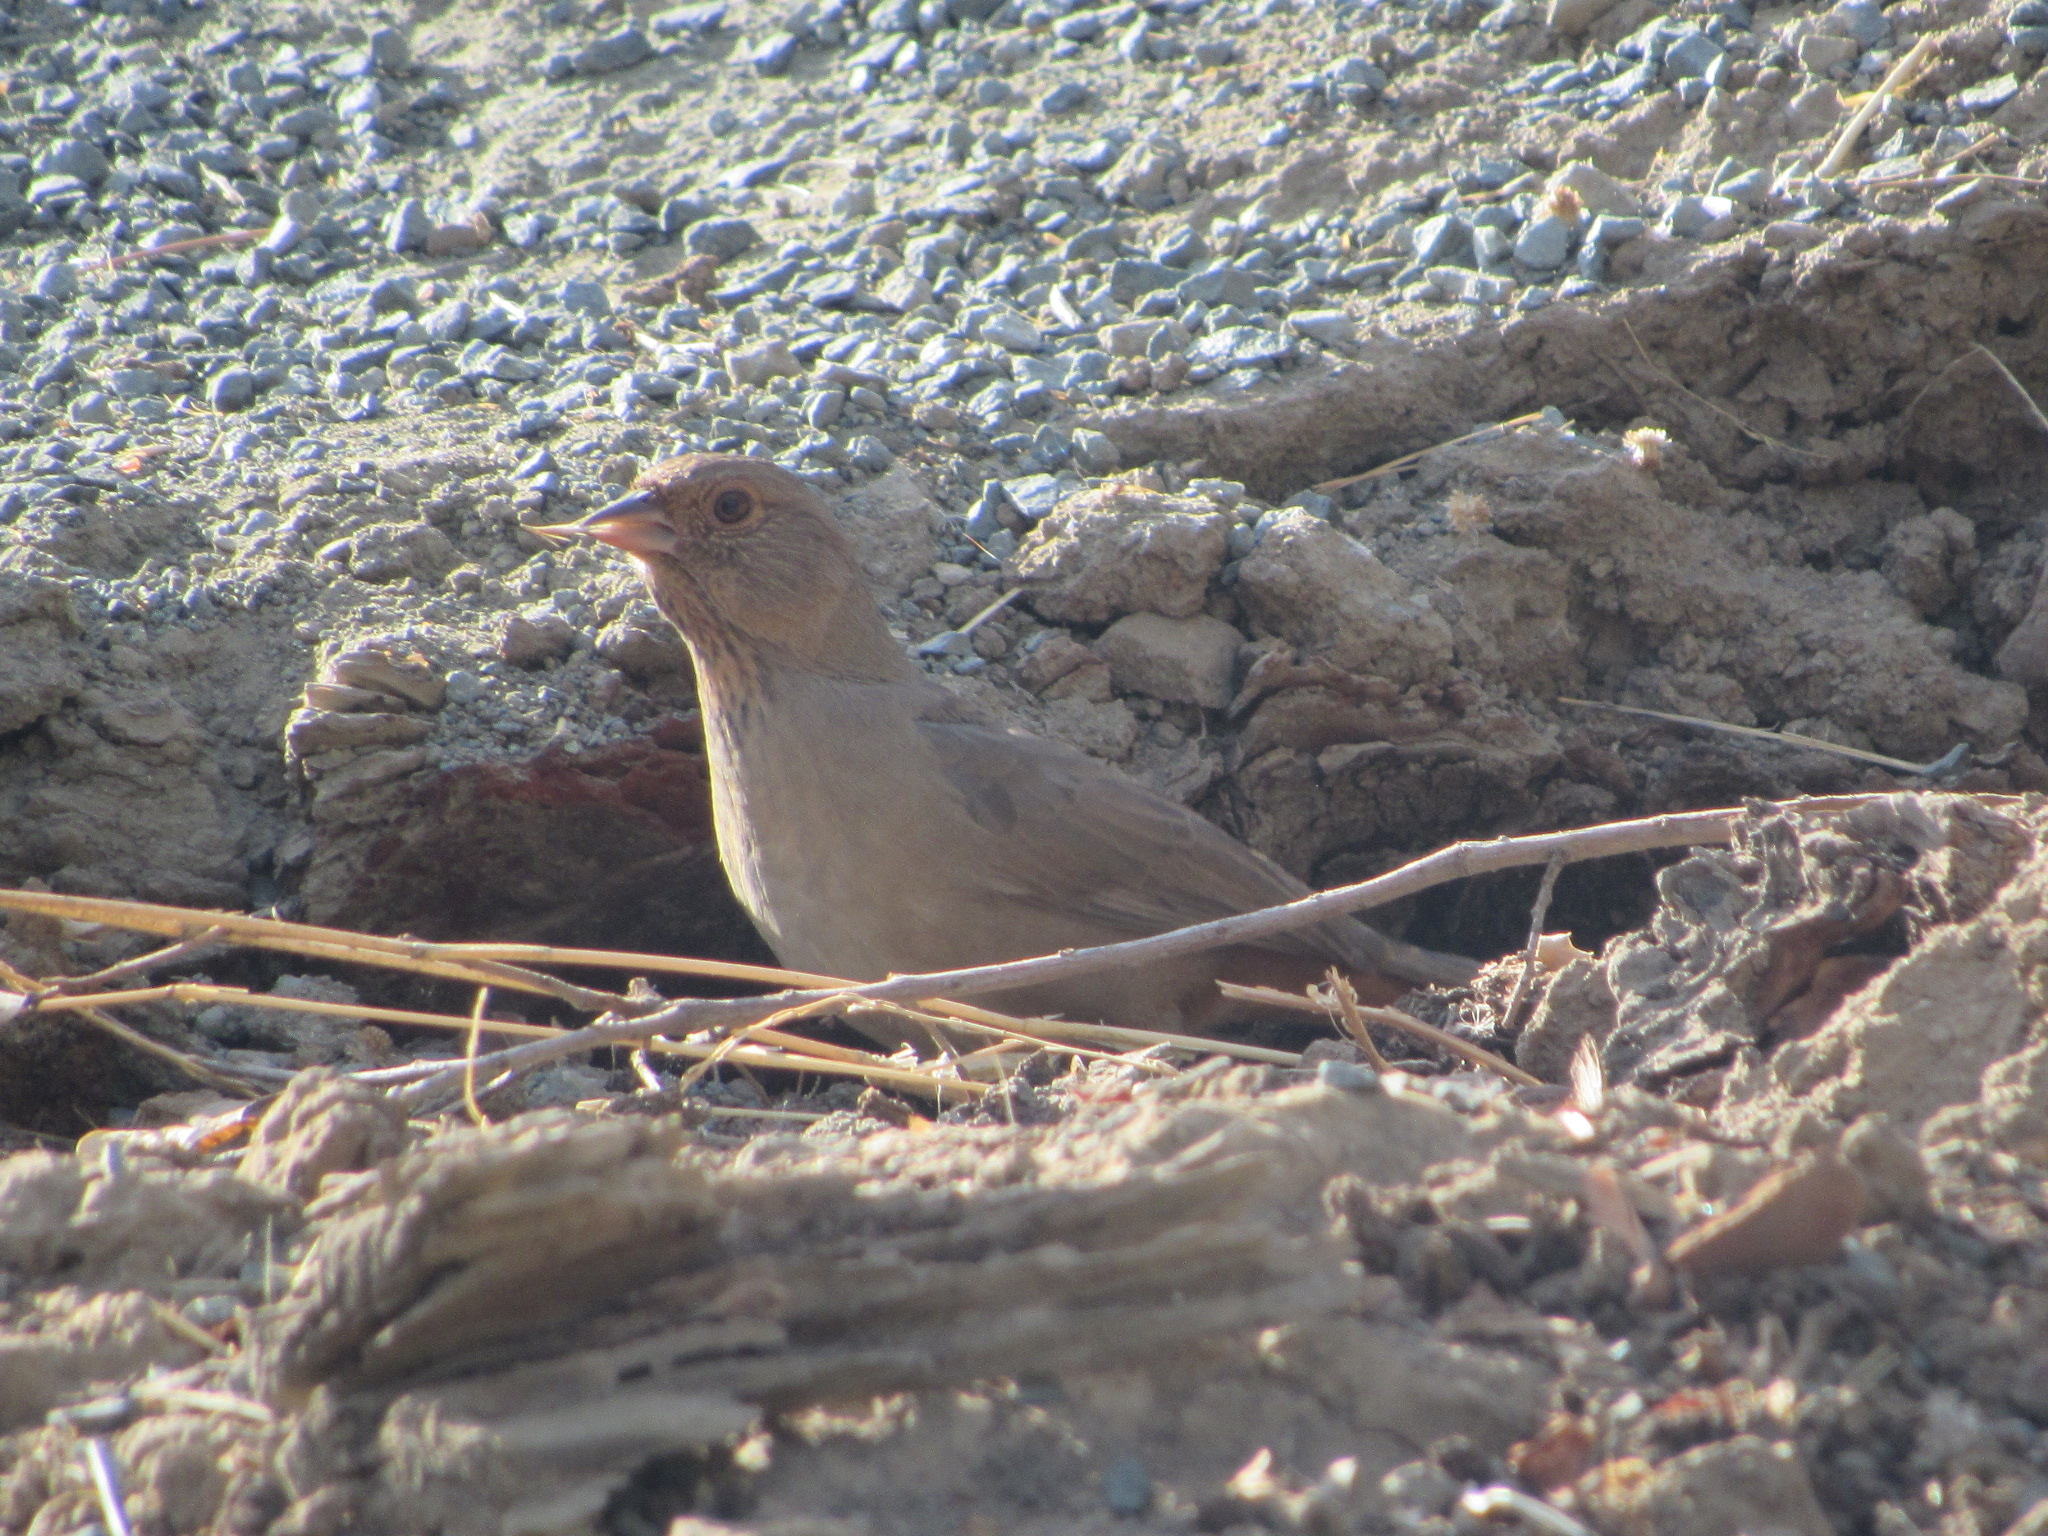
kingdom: Animalia
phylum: Chordata
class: Aves
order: Passeriformes
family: Passerellidae
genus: Melozone
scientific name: Melozone crissalis
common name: California towhee
